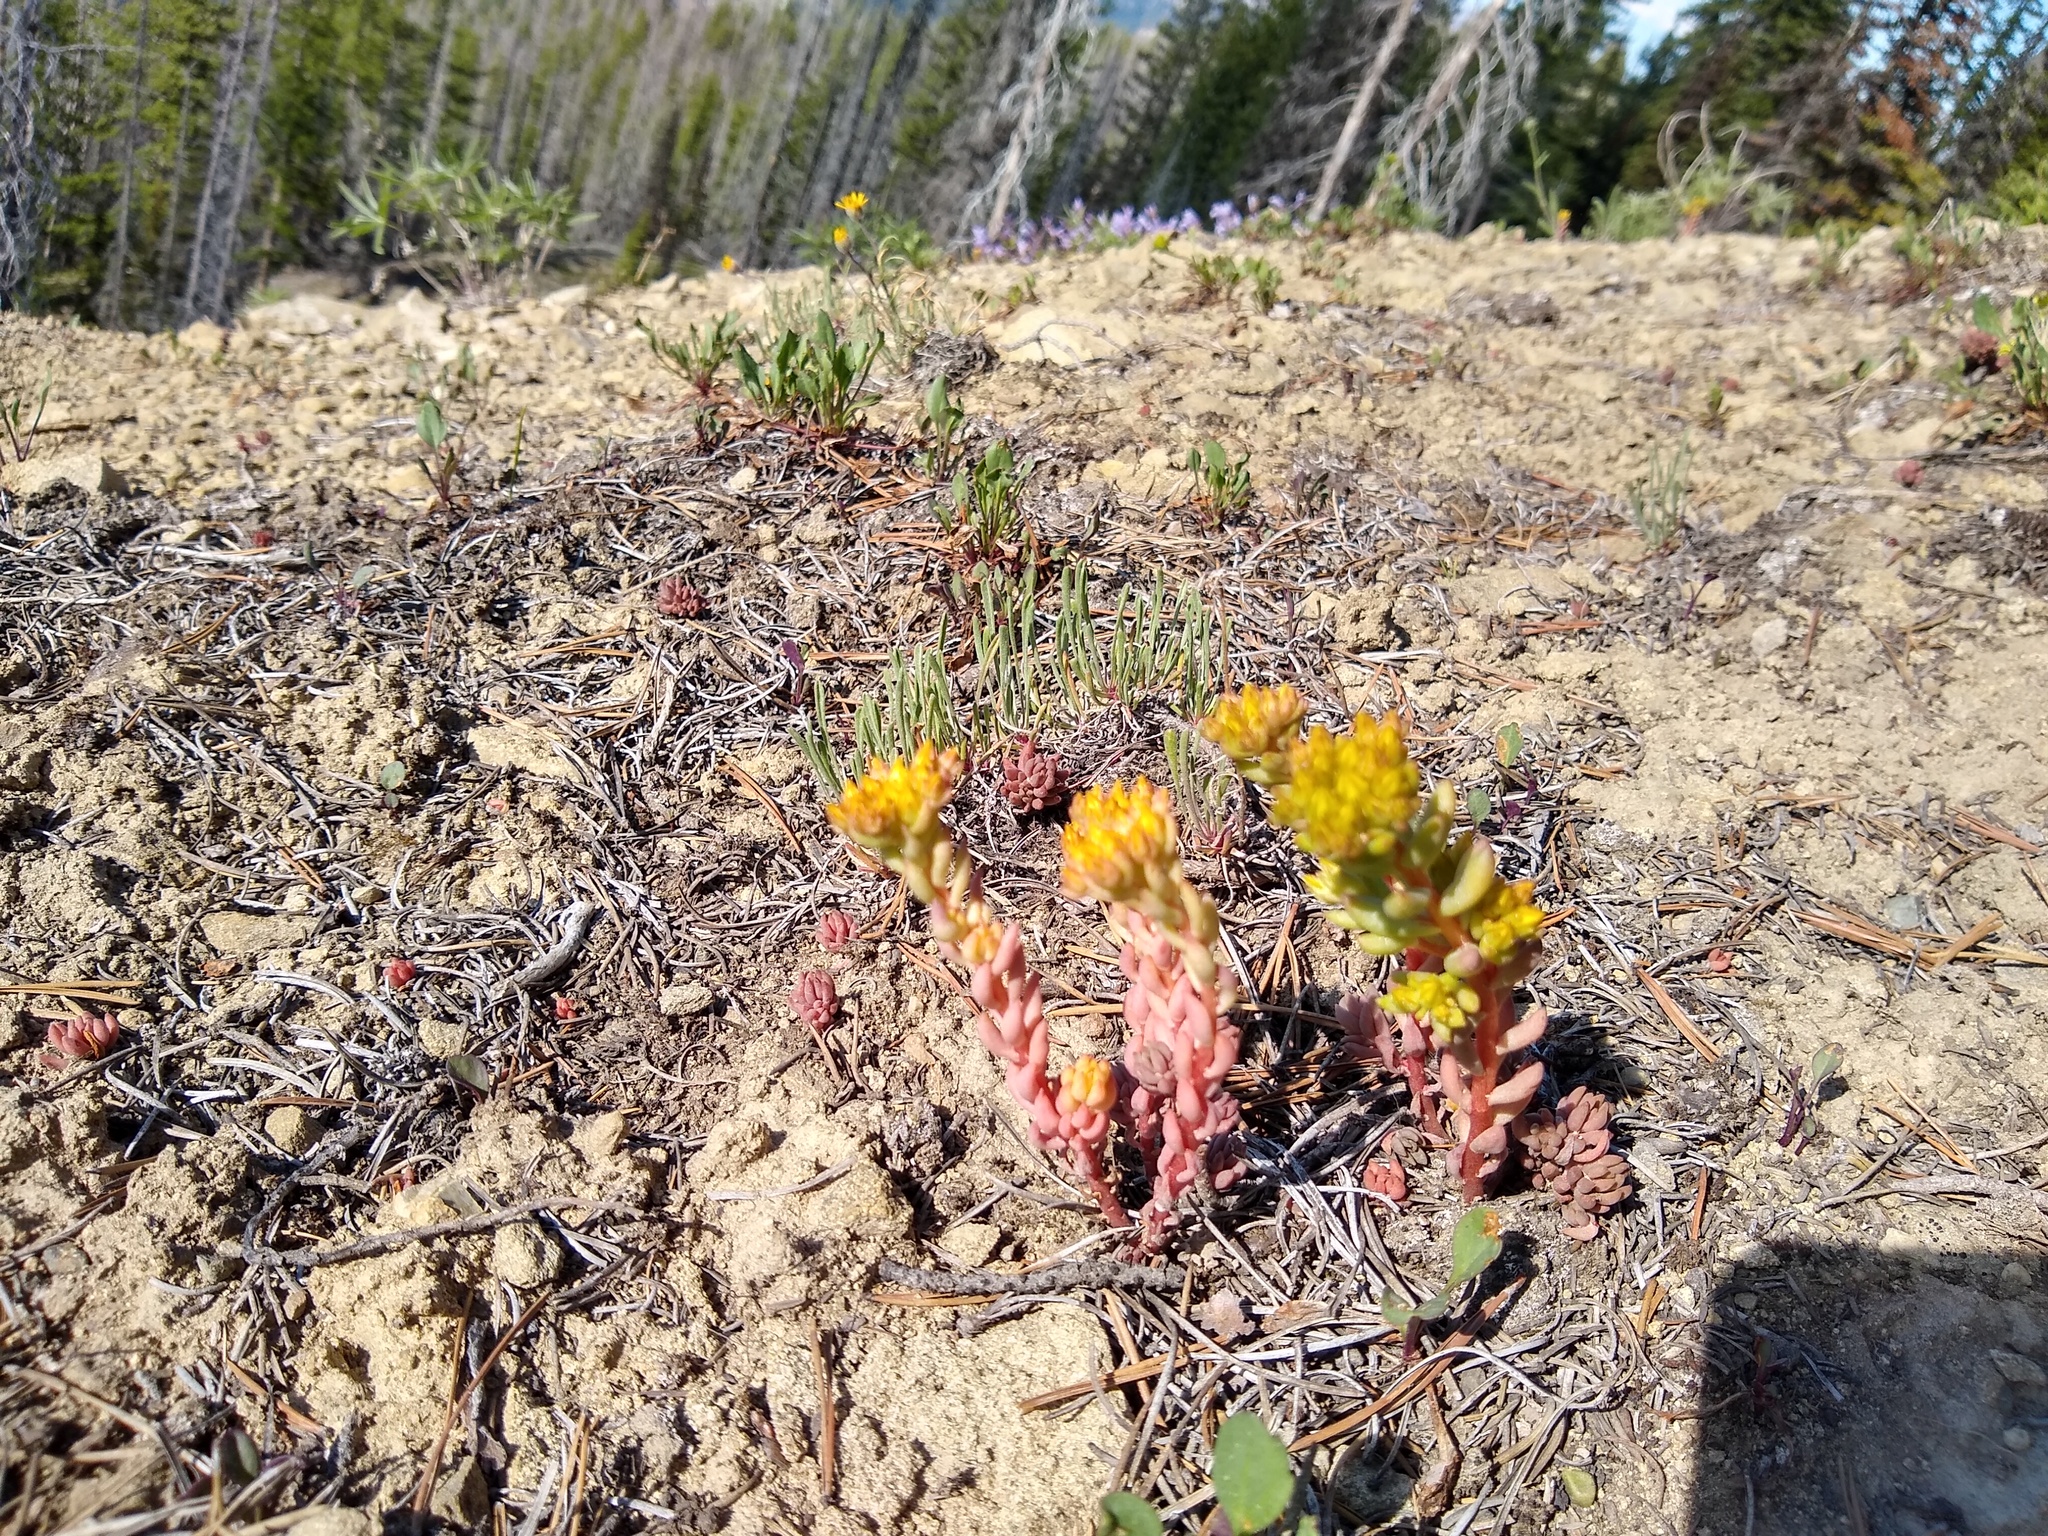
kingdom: Plantae
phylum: Tracheophyta
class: Magnoliopsida
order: Saxifragales
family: Crassulaceae
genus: Sedum
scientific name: Sedum lanceolatum
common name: Common stonecrop
